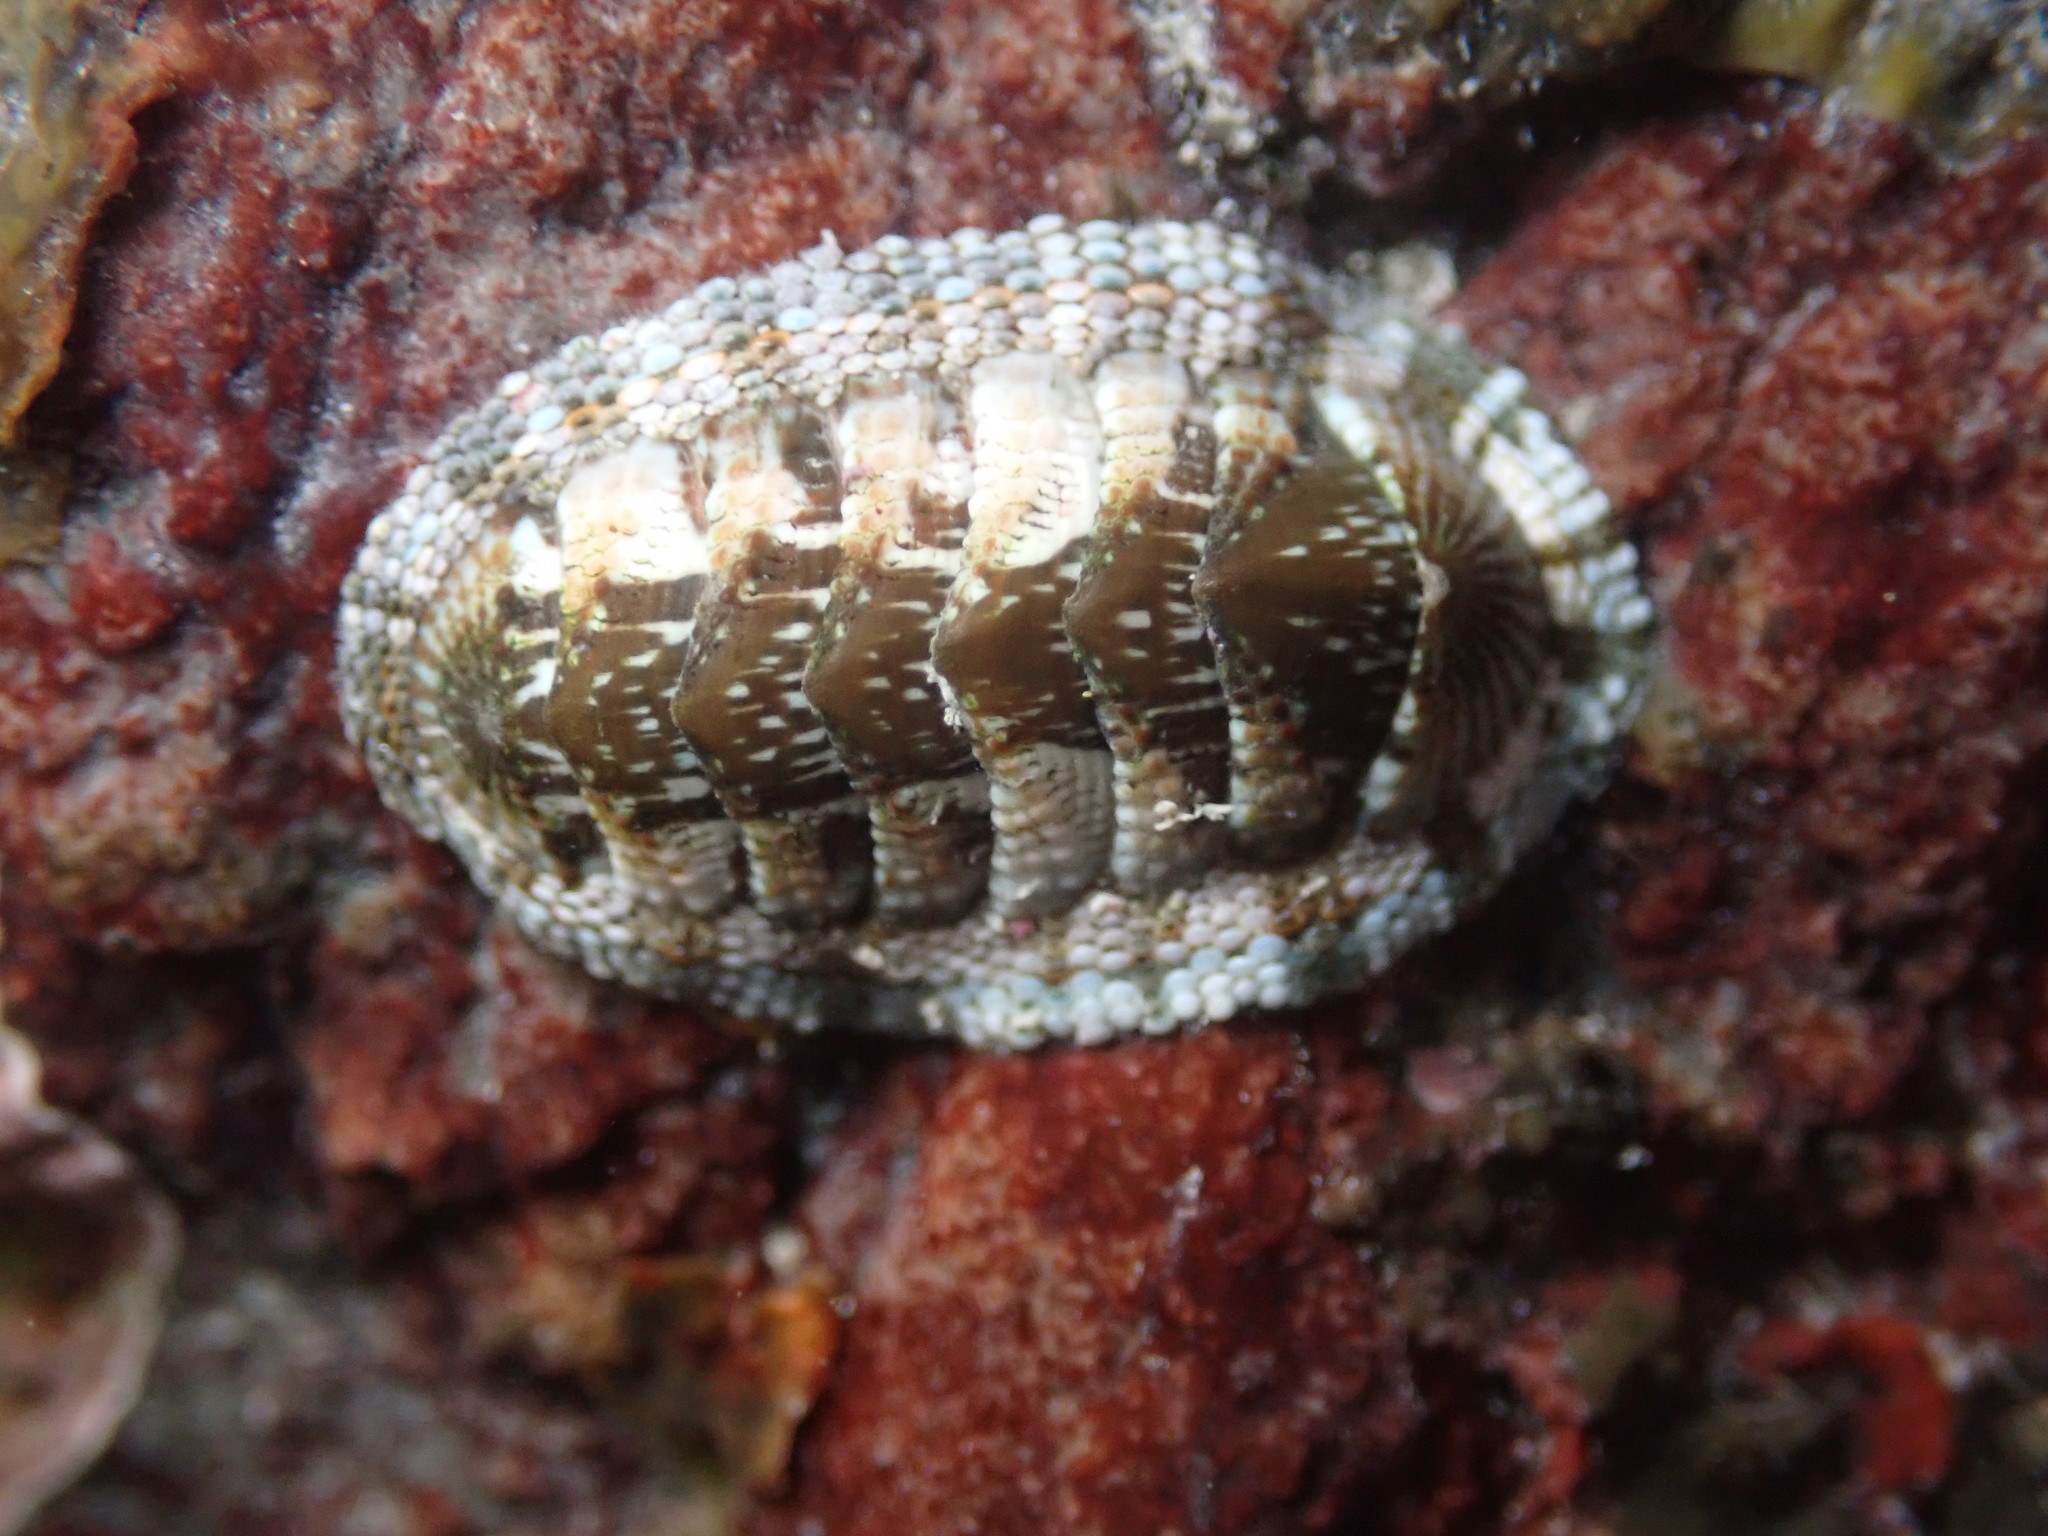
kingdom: Animalia
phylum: Mollusca
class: Polyplacophora
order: Chitonida
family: Chitonidae
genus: Sypharochiton
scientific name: Sypharochiton sinclairi
